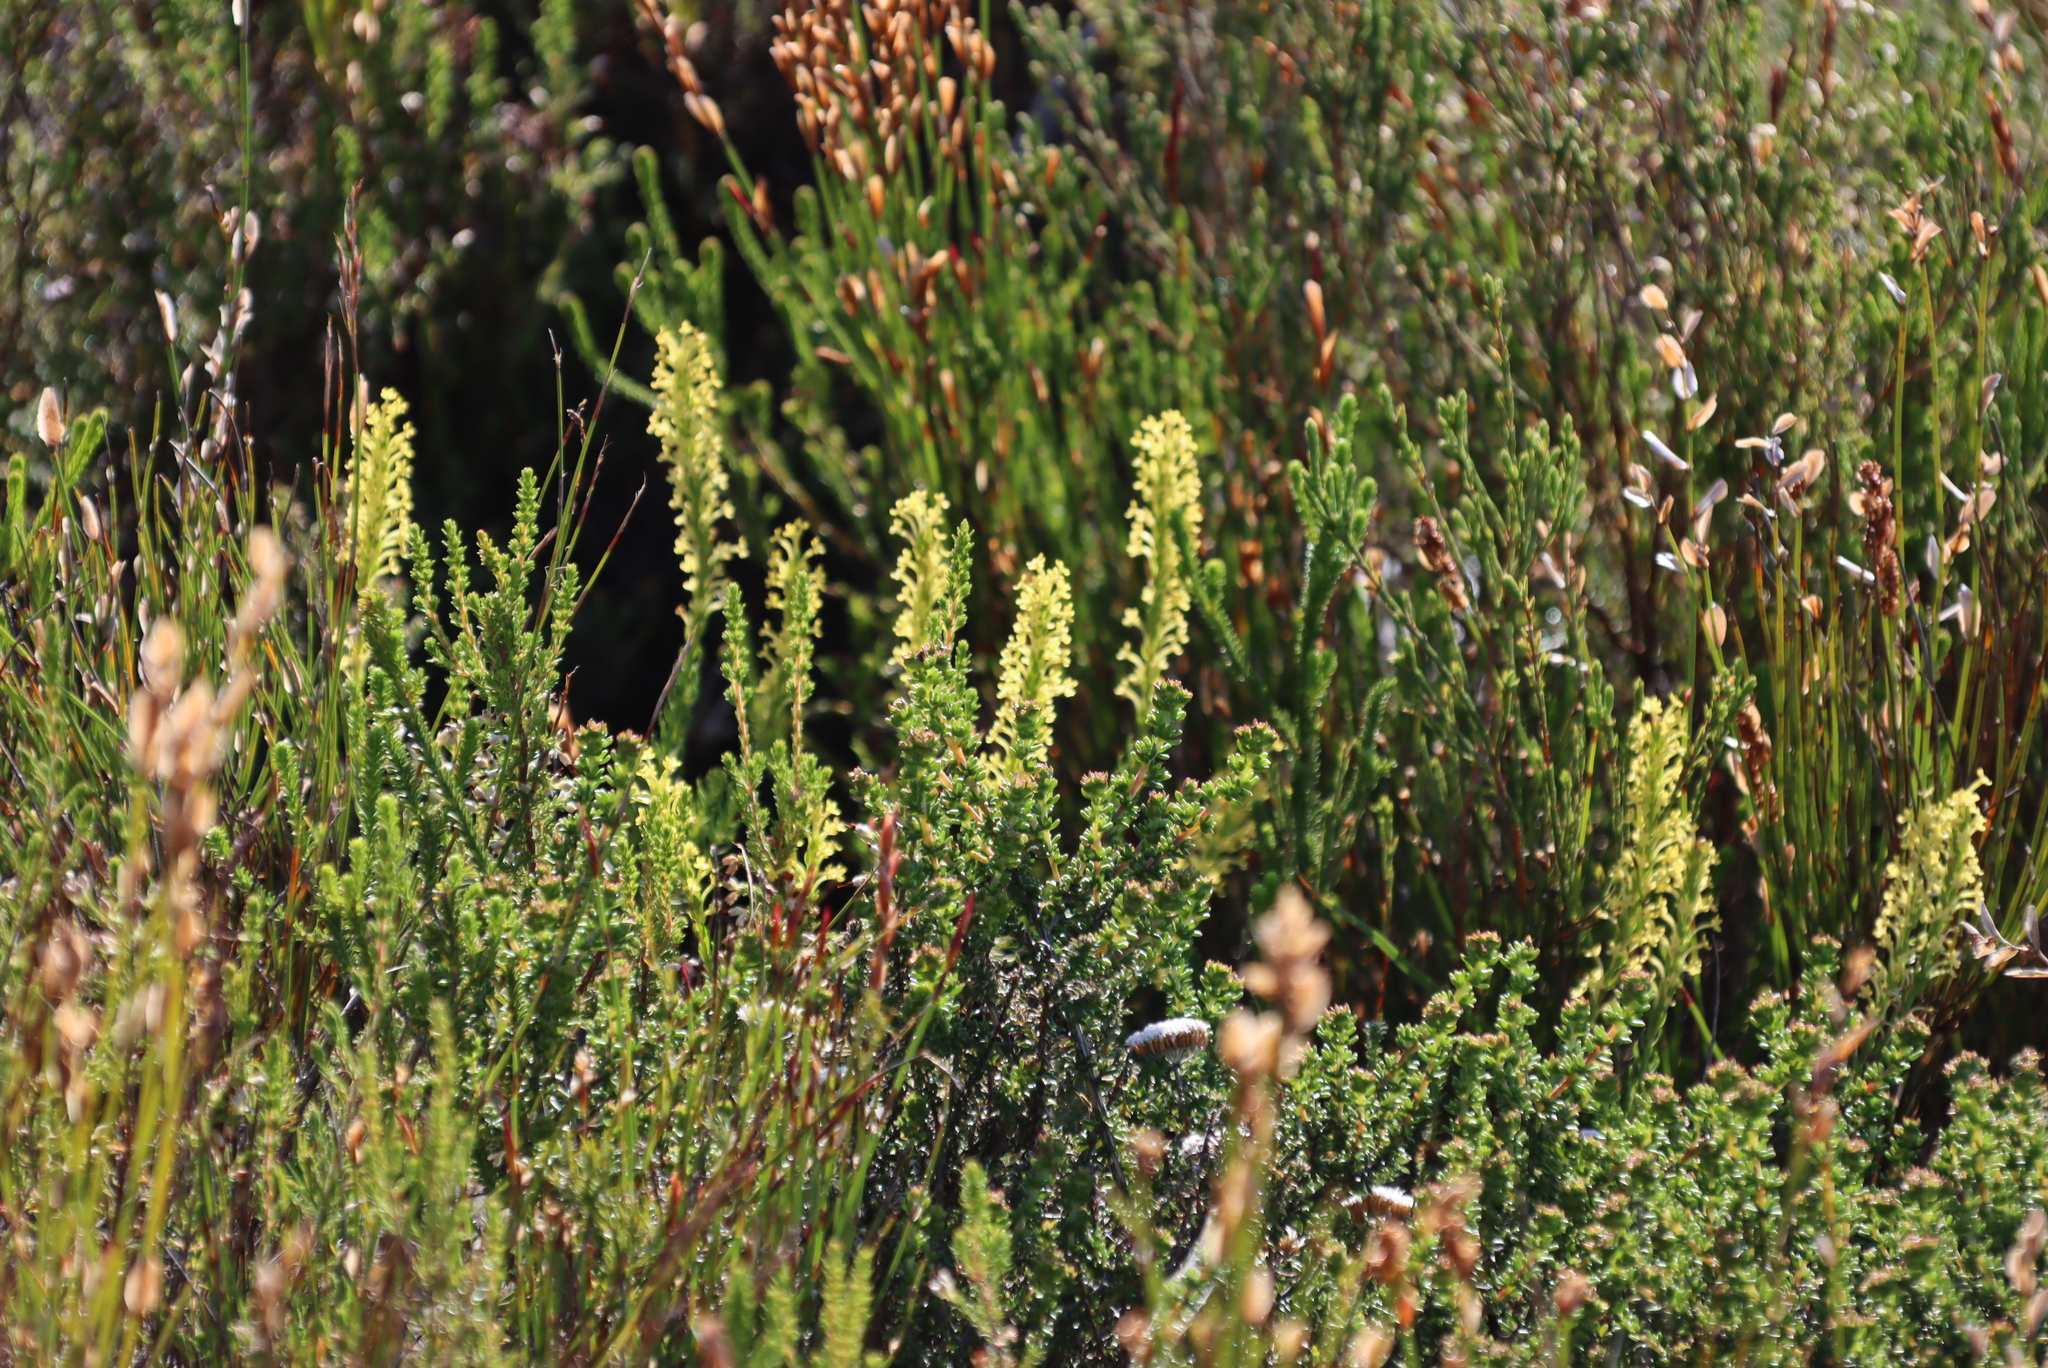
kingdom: Plantae
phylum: Tracheophyta
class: Magnoliopsida
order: Lamiales
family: Scrophulariaceae
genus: Microdon
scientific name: Microdon dubius
